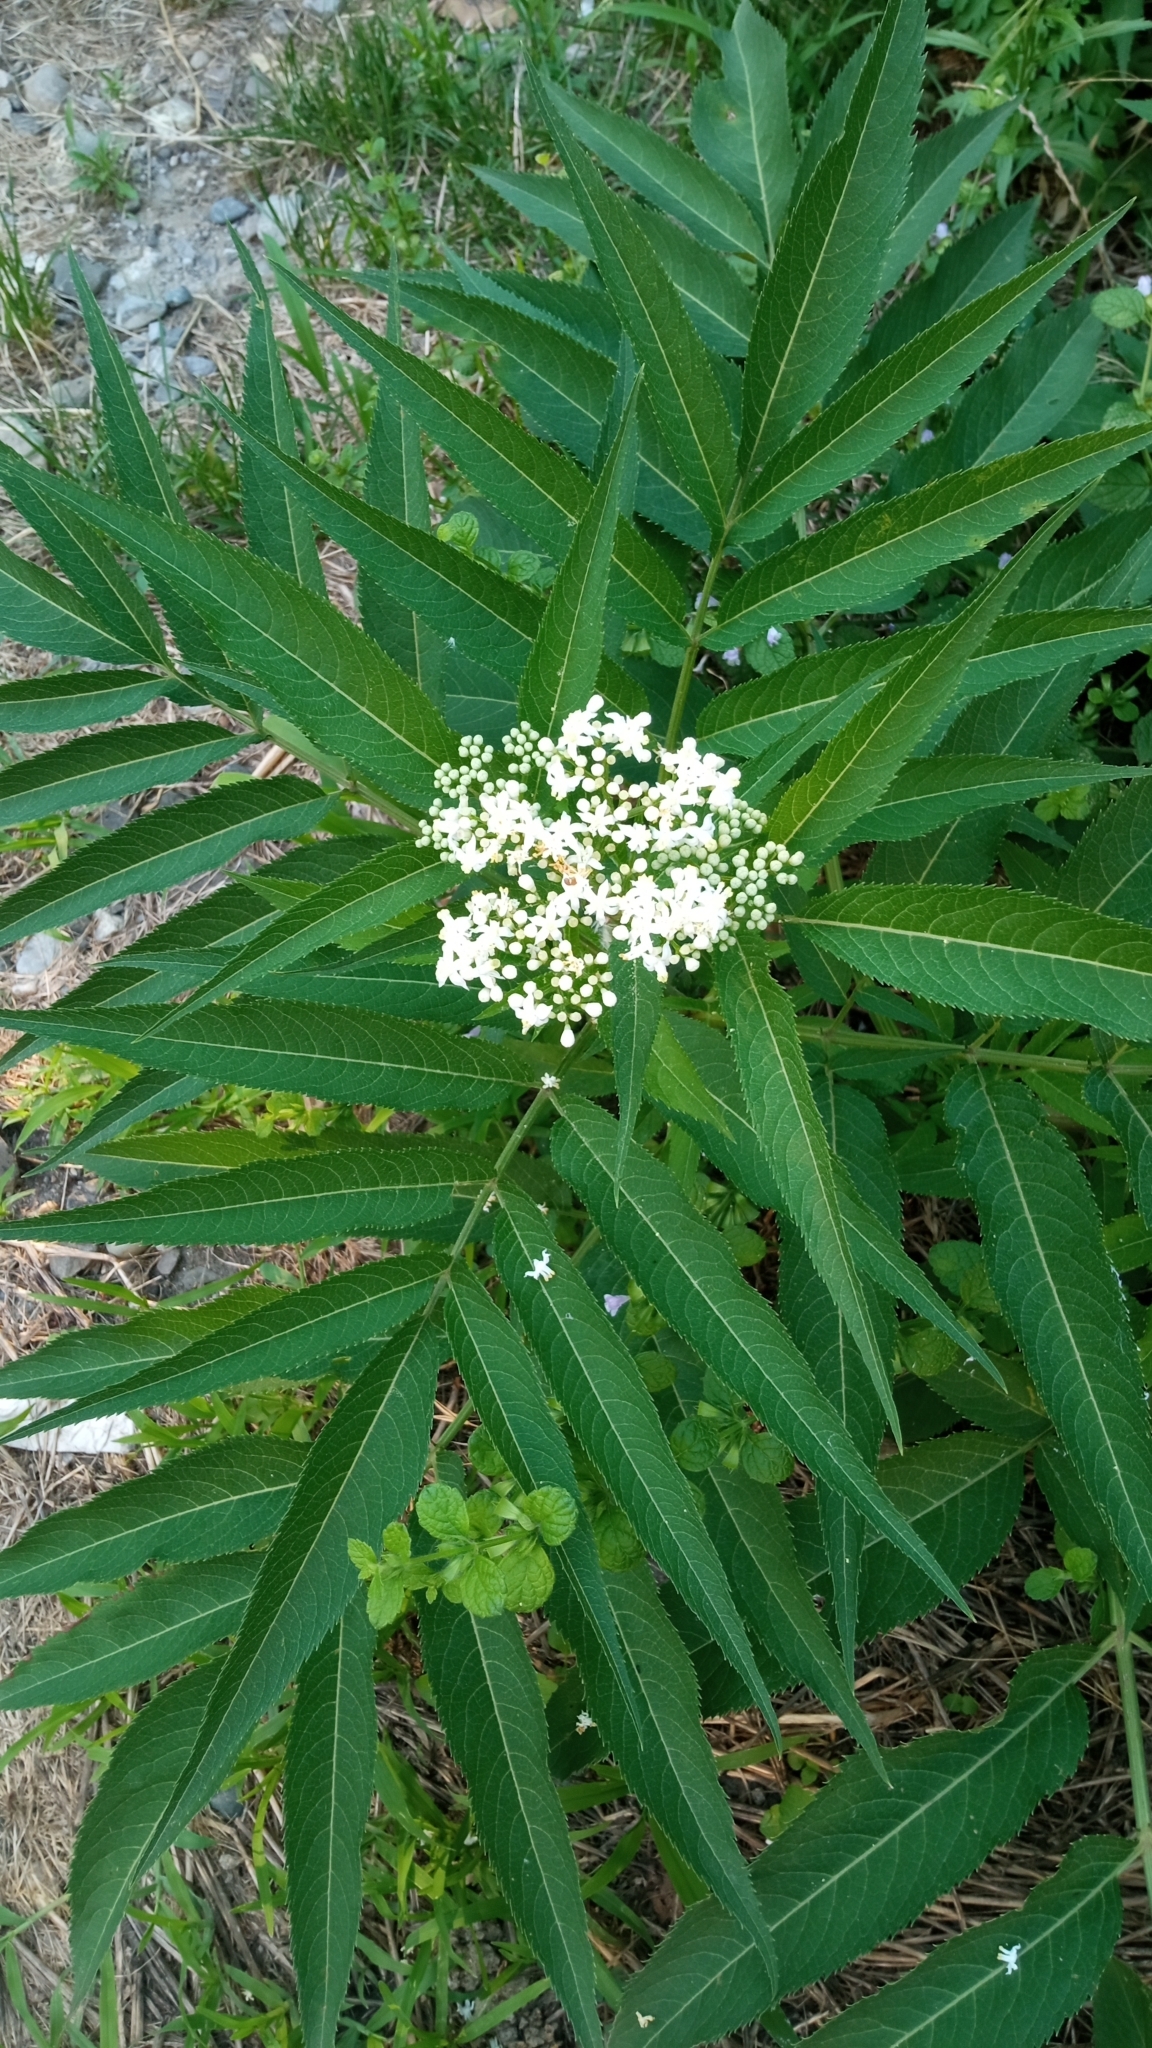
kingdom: Plantae
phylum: Tracheophyta
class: Magnoliopsida
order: Dipsacales
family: Viburnaceae
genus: Sambucus
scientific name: Sambucus ebulus
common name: Dwarf elder
